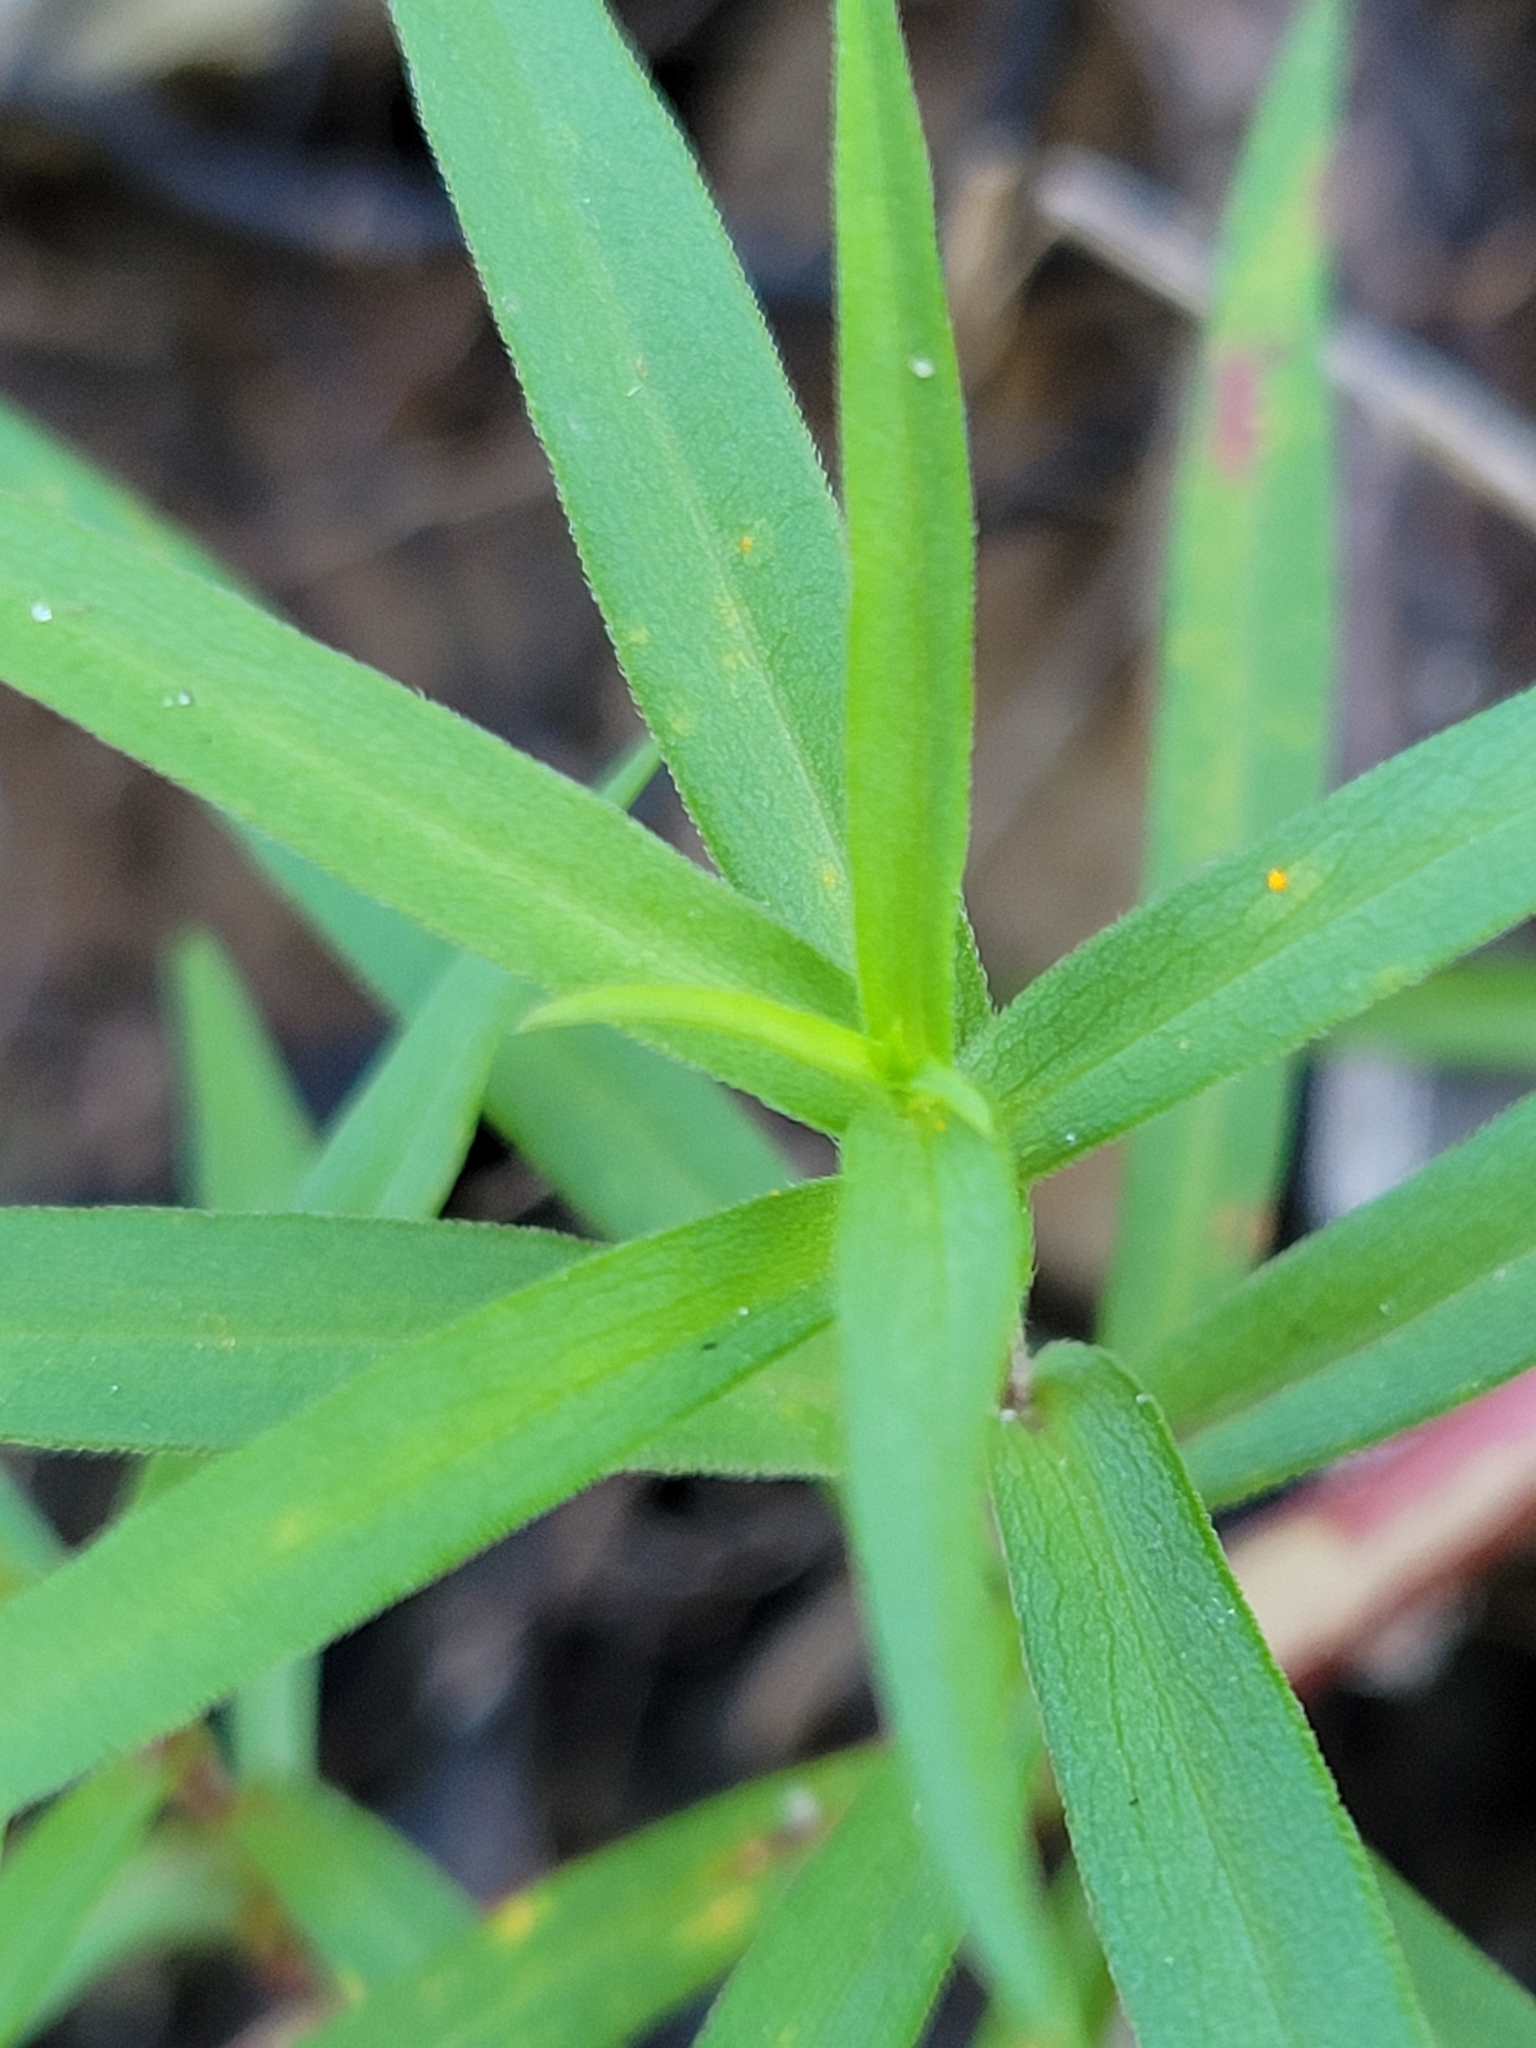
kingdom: Plantae
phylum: Tracheophyta
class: Magnoliopsida
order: Asterales
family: Asteraceae
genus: Symphyotrichum
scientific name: Symphyotrichum lanceolatum
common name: Panicled aster
